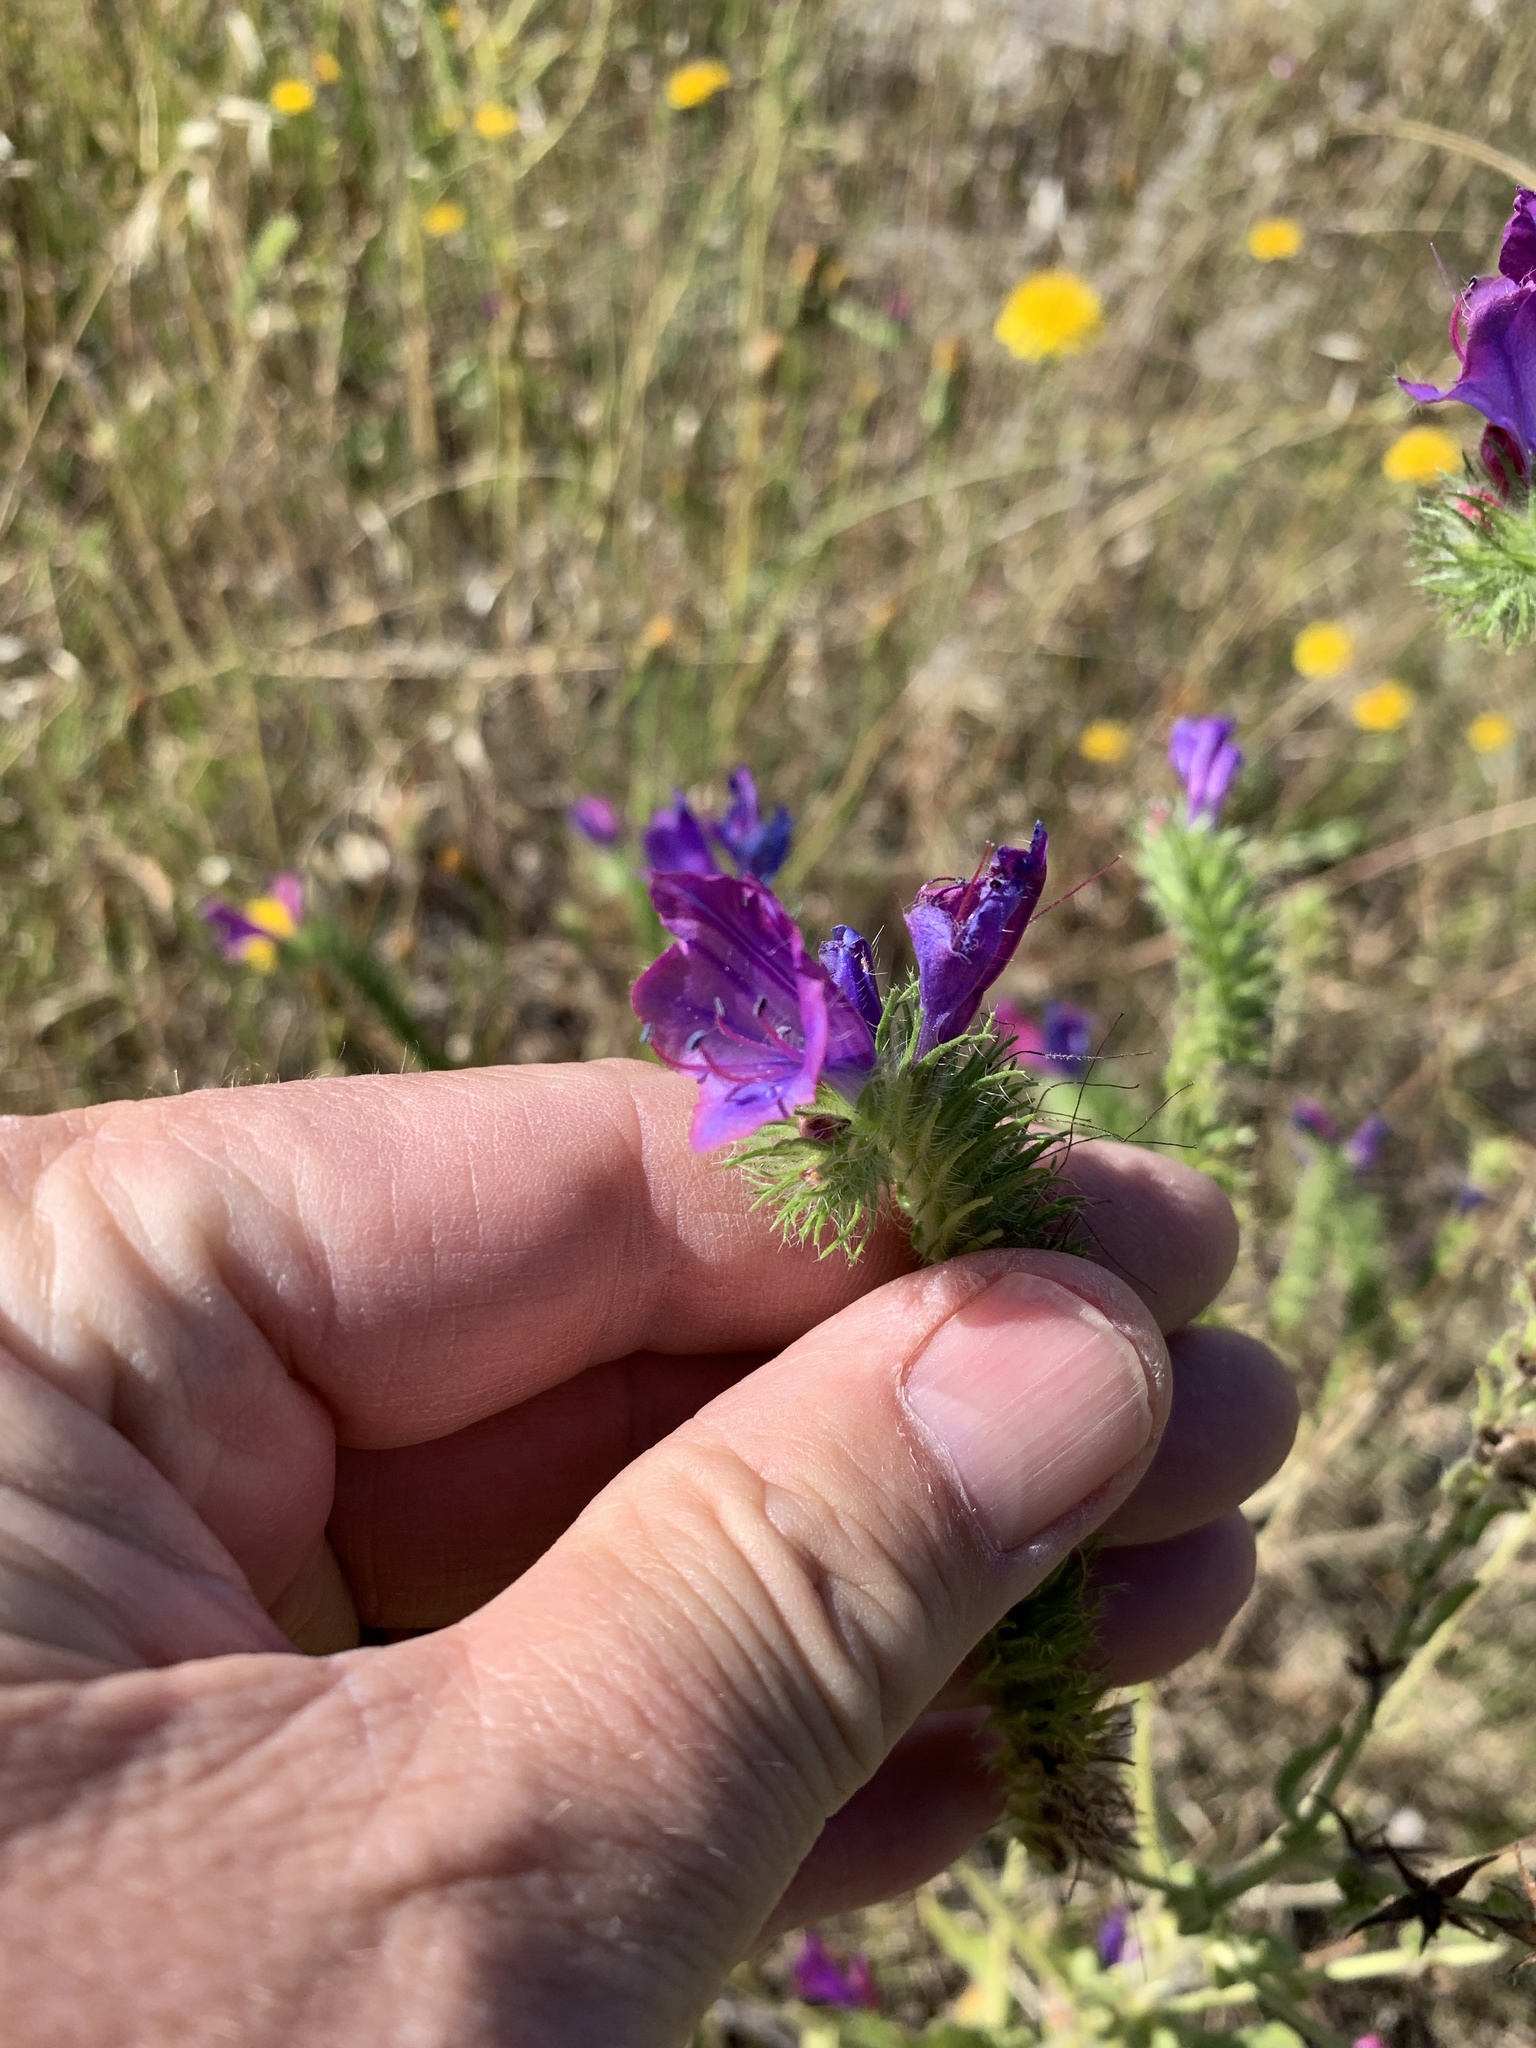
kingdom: Plantae
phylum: Tracheophyta
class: Magnoliopsida
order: Boraginales
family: Boraginaceae
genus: Echium
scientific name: Echium plantagineum
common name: Purple viper's-bugloss
